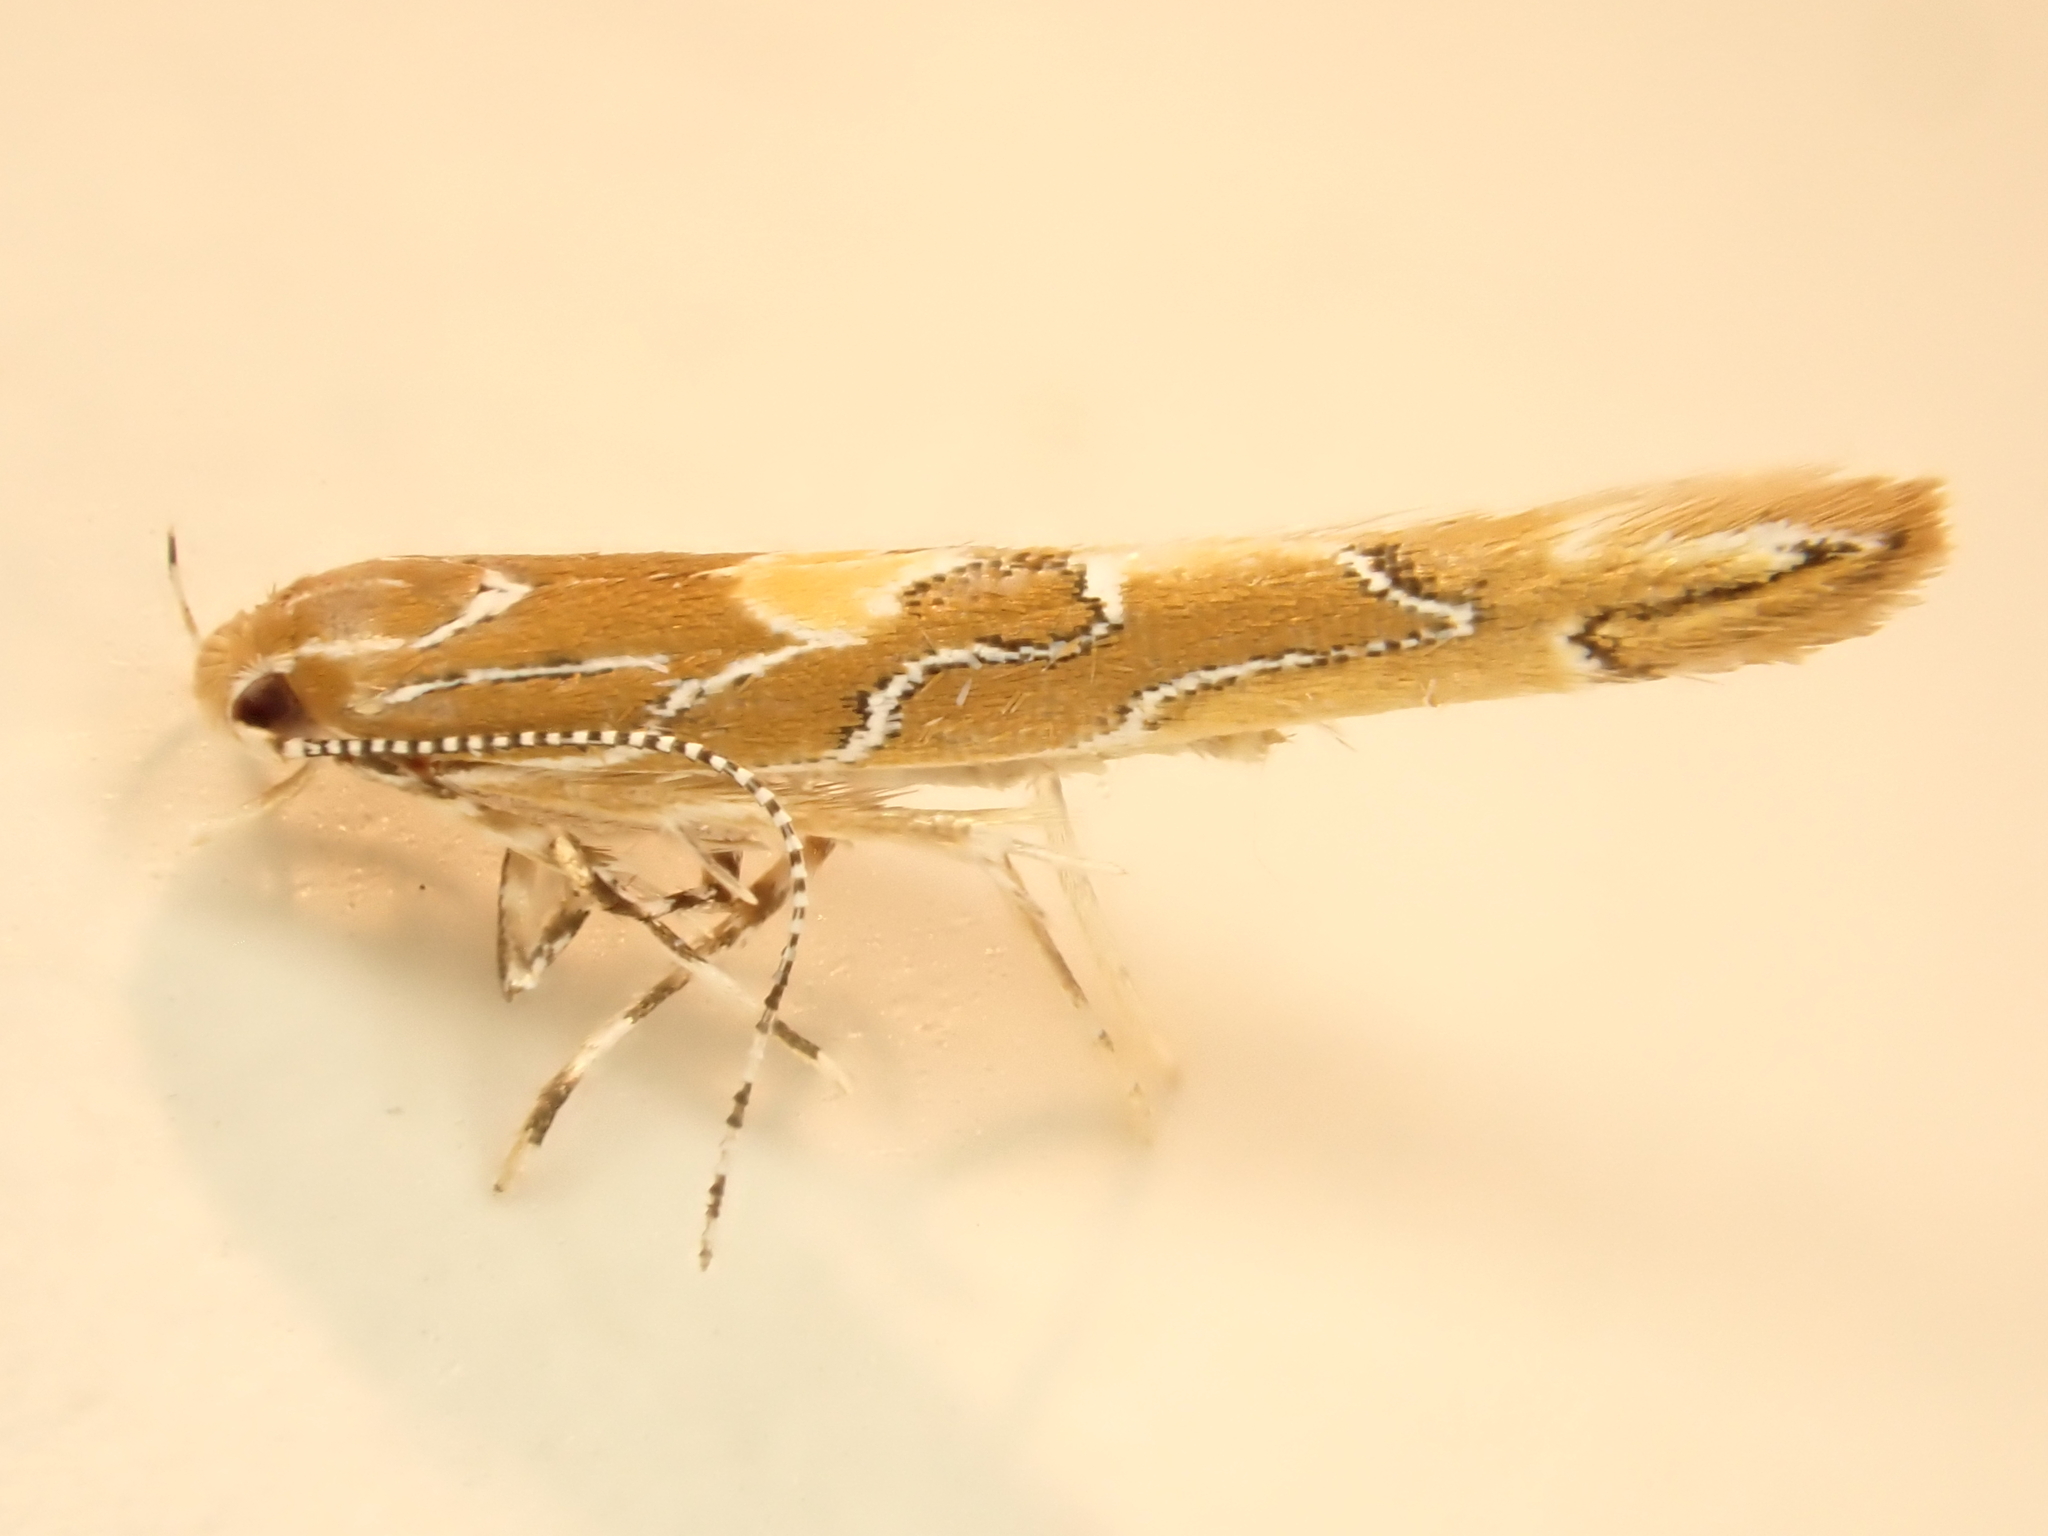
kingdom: Animalia
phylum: Arthropoda
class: Insecta
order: Lepidoptera
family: Cosmopterigidae
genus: Pyroderces
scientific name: Pyroderces apparitella
